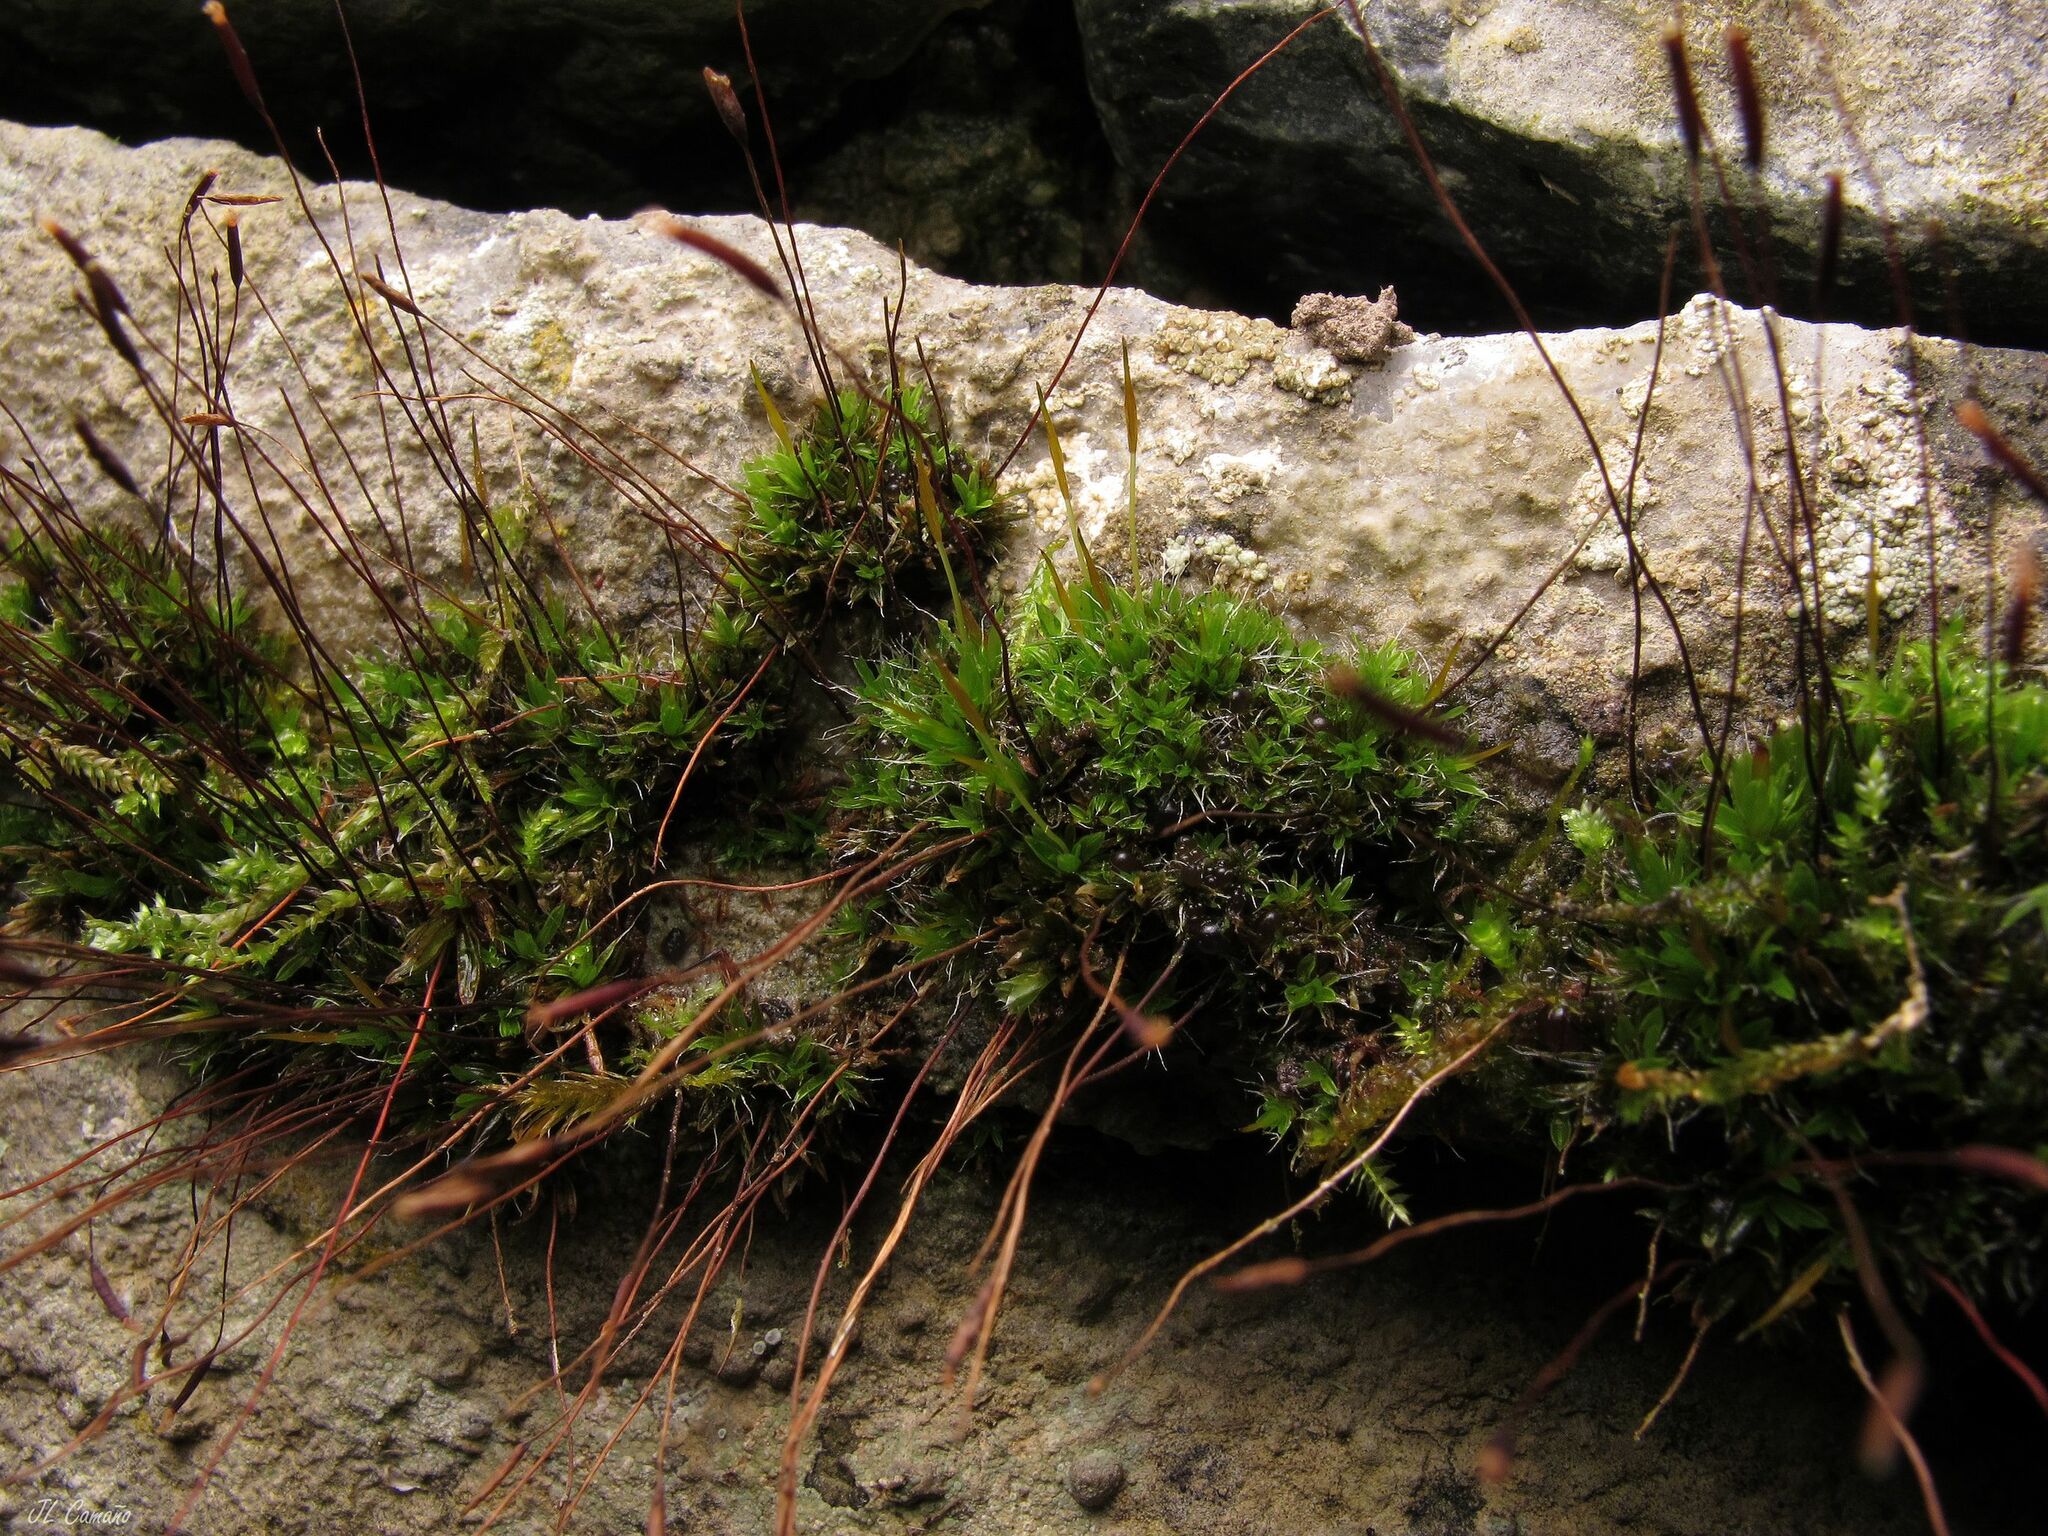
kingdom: Plantae
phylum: Bryophyta
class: Bryopsida
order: Pottiales
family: Pottiaceae
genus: Tortula
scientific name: Tortula muralis
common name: Wall screw-moss
